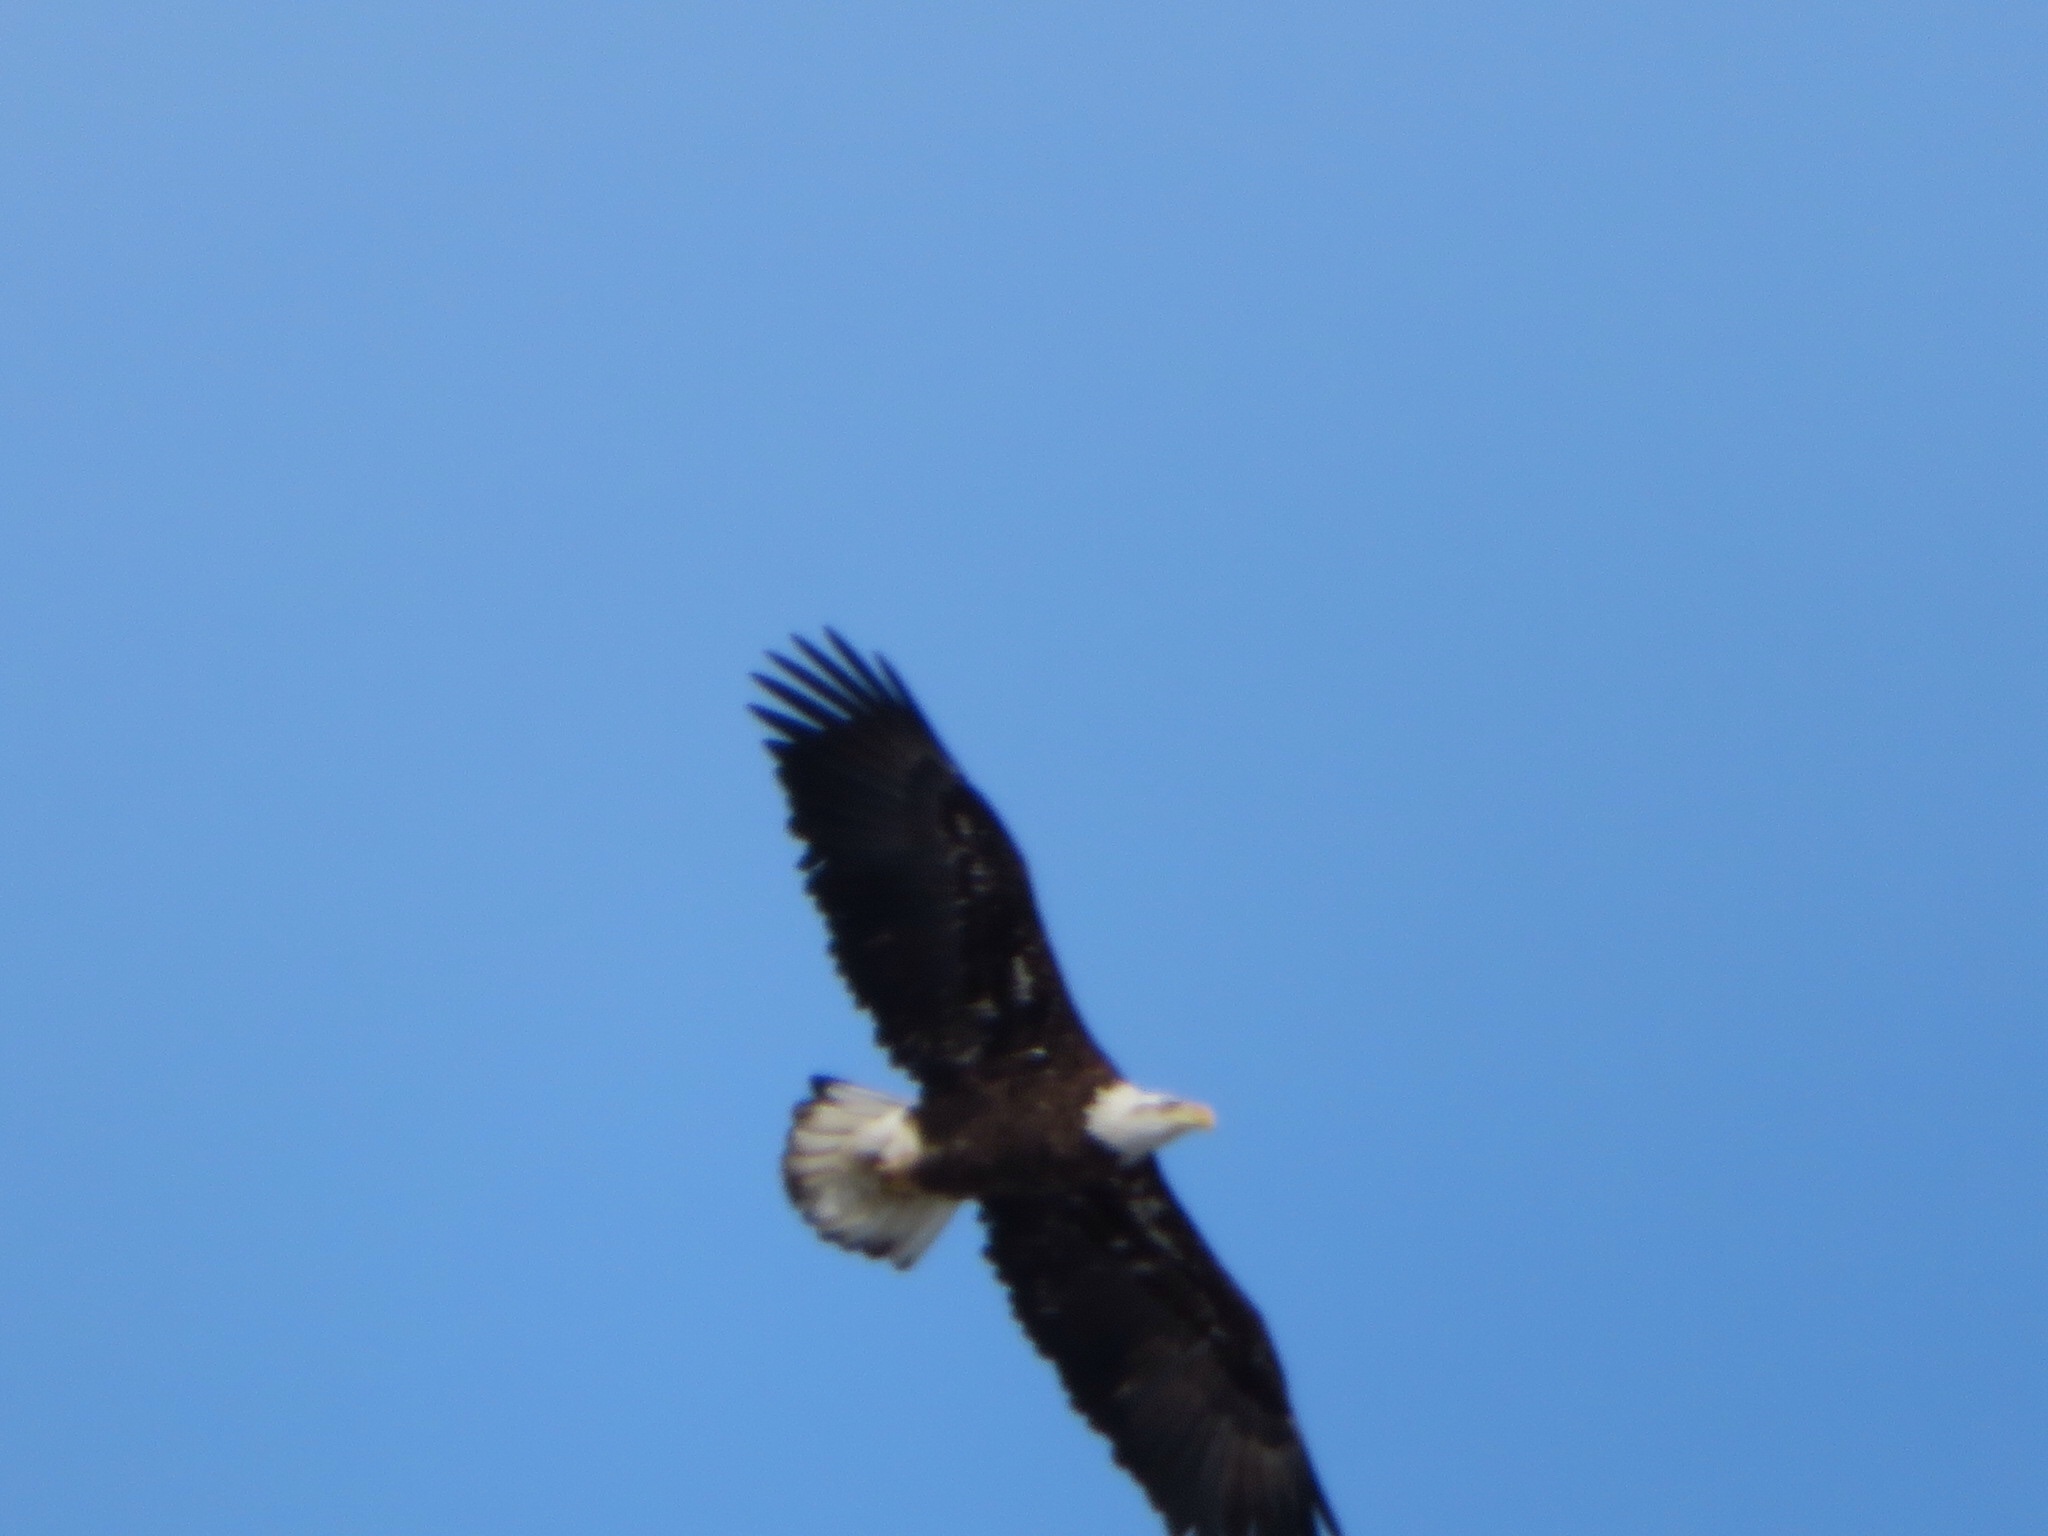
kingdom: Animalia
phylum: Chordata
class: Aves
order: Accipitriformes
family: Accipitridae
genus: Haliaeetus
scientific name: Haliaeetus leucocephalus
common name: Bald eagle
